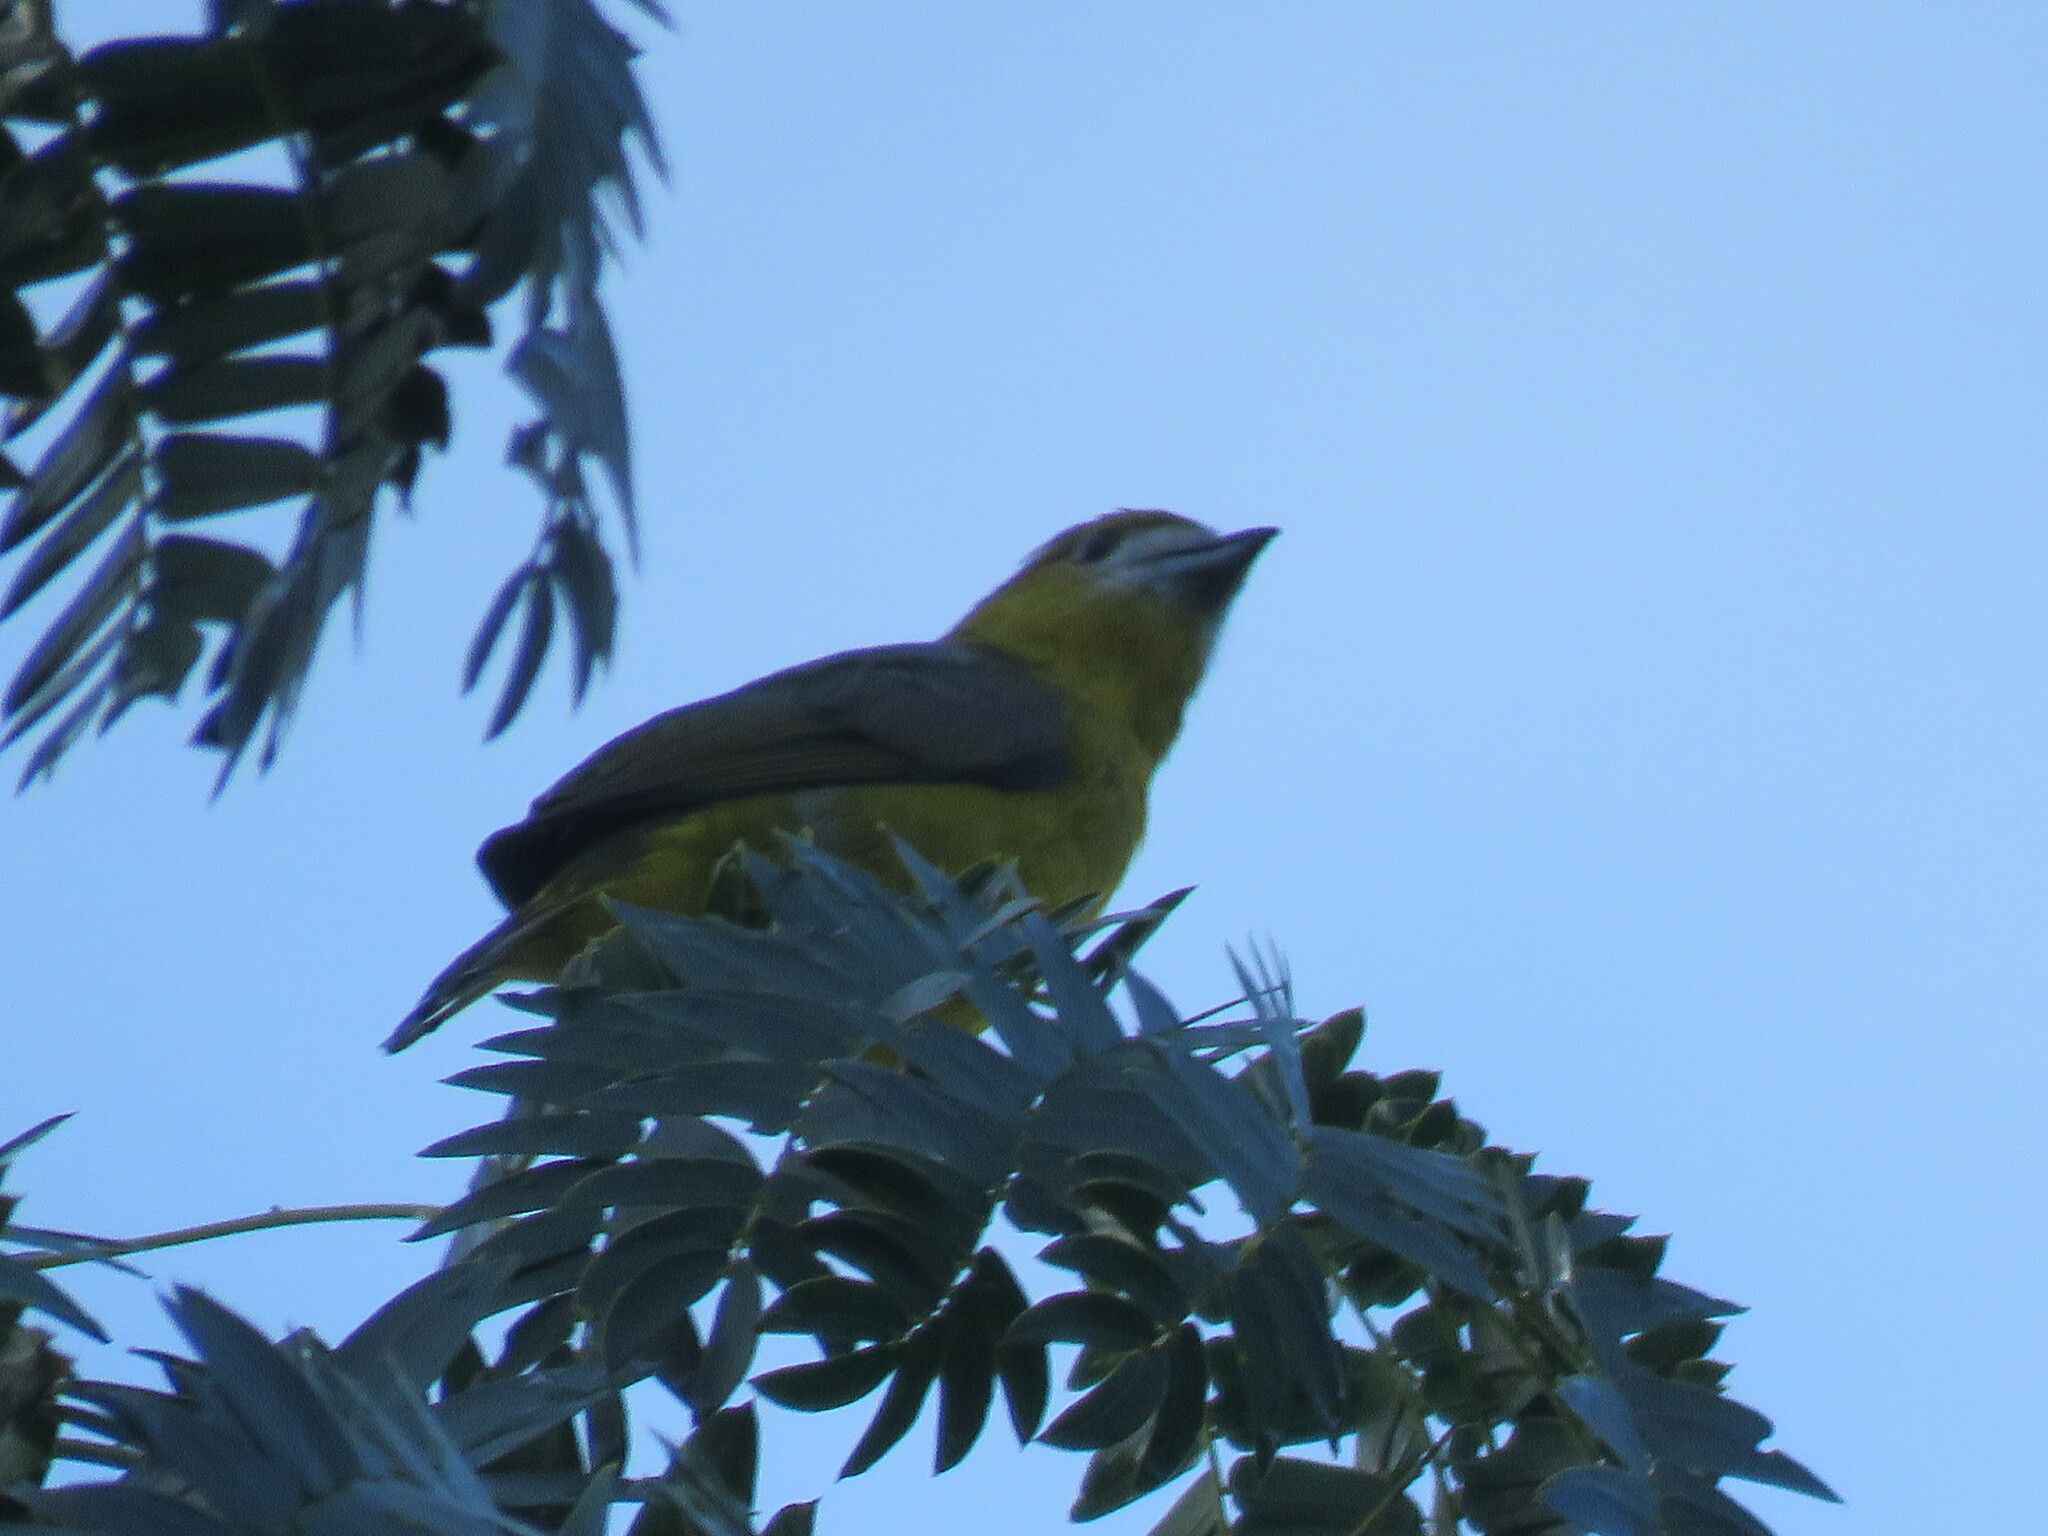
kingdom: Animalia
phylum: Chordata
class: Aves
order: Passeriformes
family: Fringillidae
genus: Euphonia
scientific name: Euphonia chrysopasta
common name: White-lored euphonia
